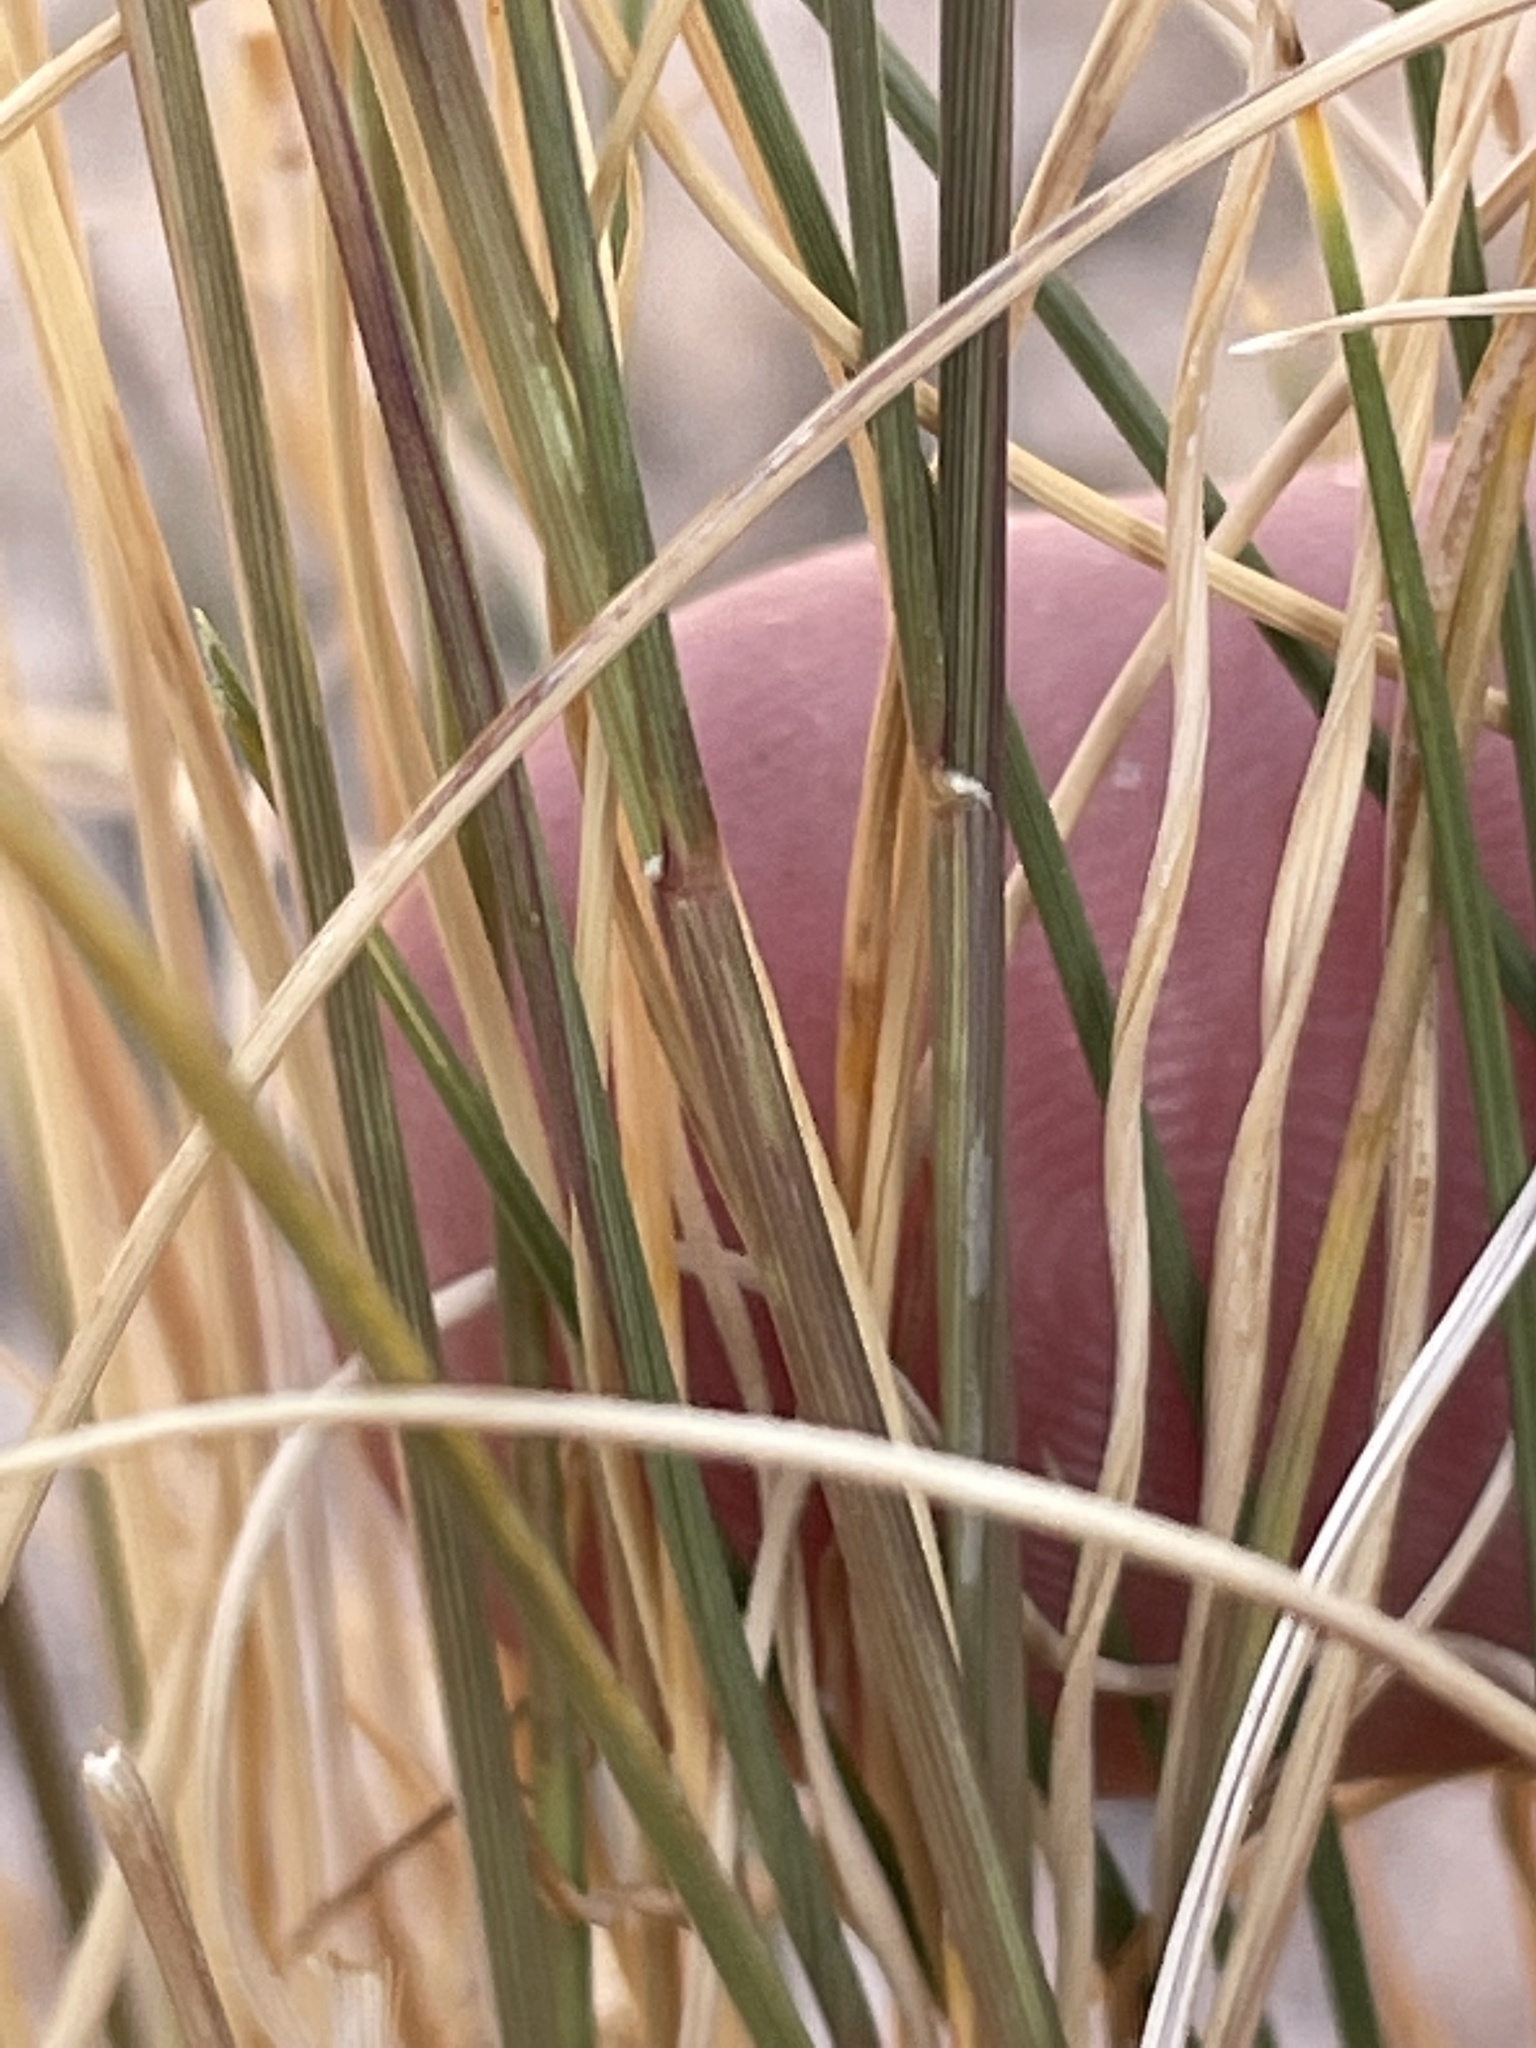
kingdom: Plantae
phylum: Tracheophyta
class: Liliopsida
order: Poales
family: Poaceae
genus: Aristida
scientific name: Aristida purpurea
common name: Purple threeawn
